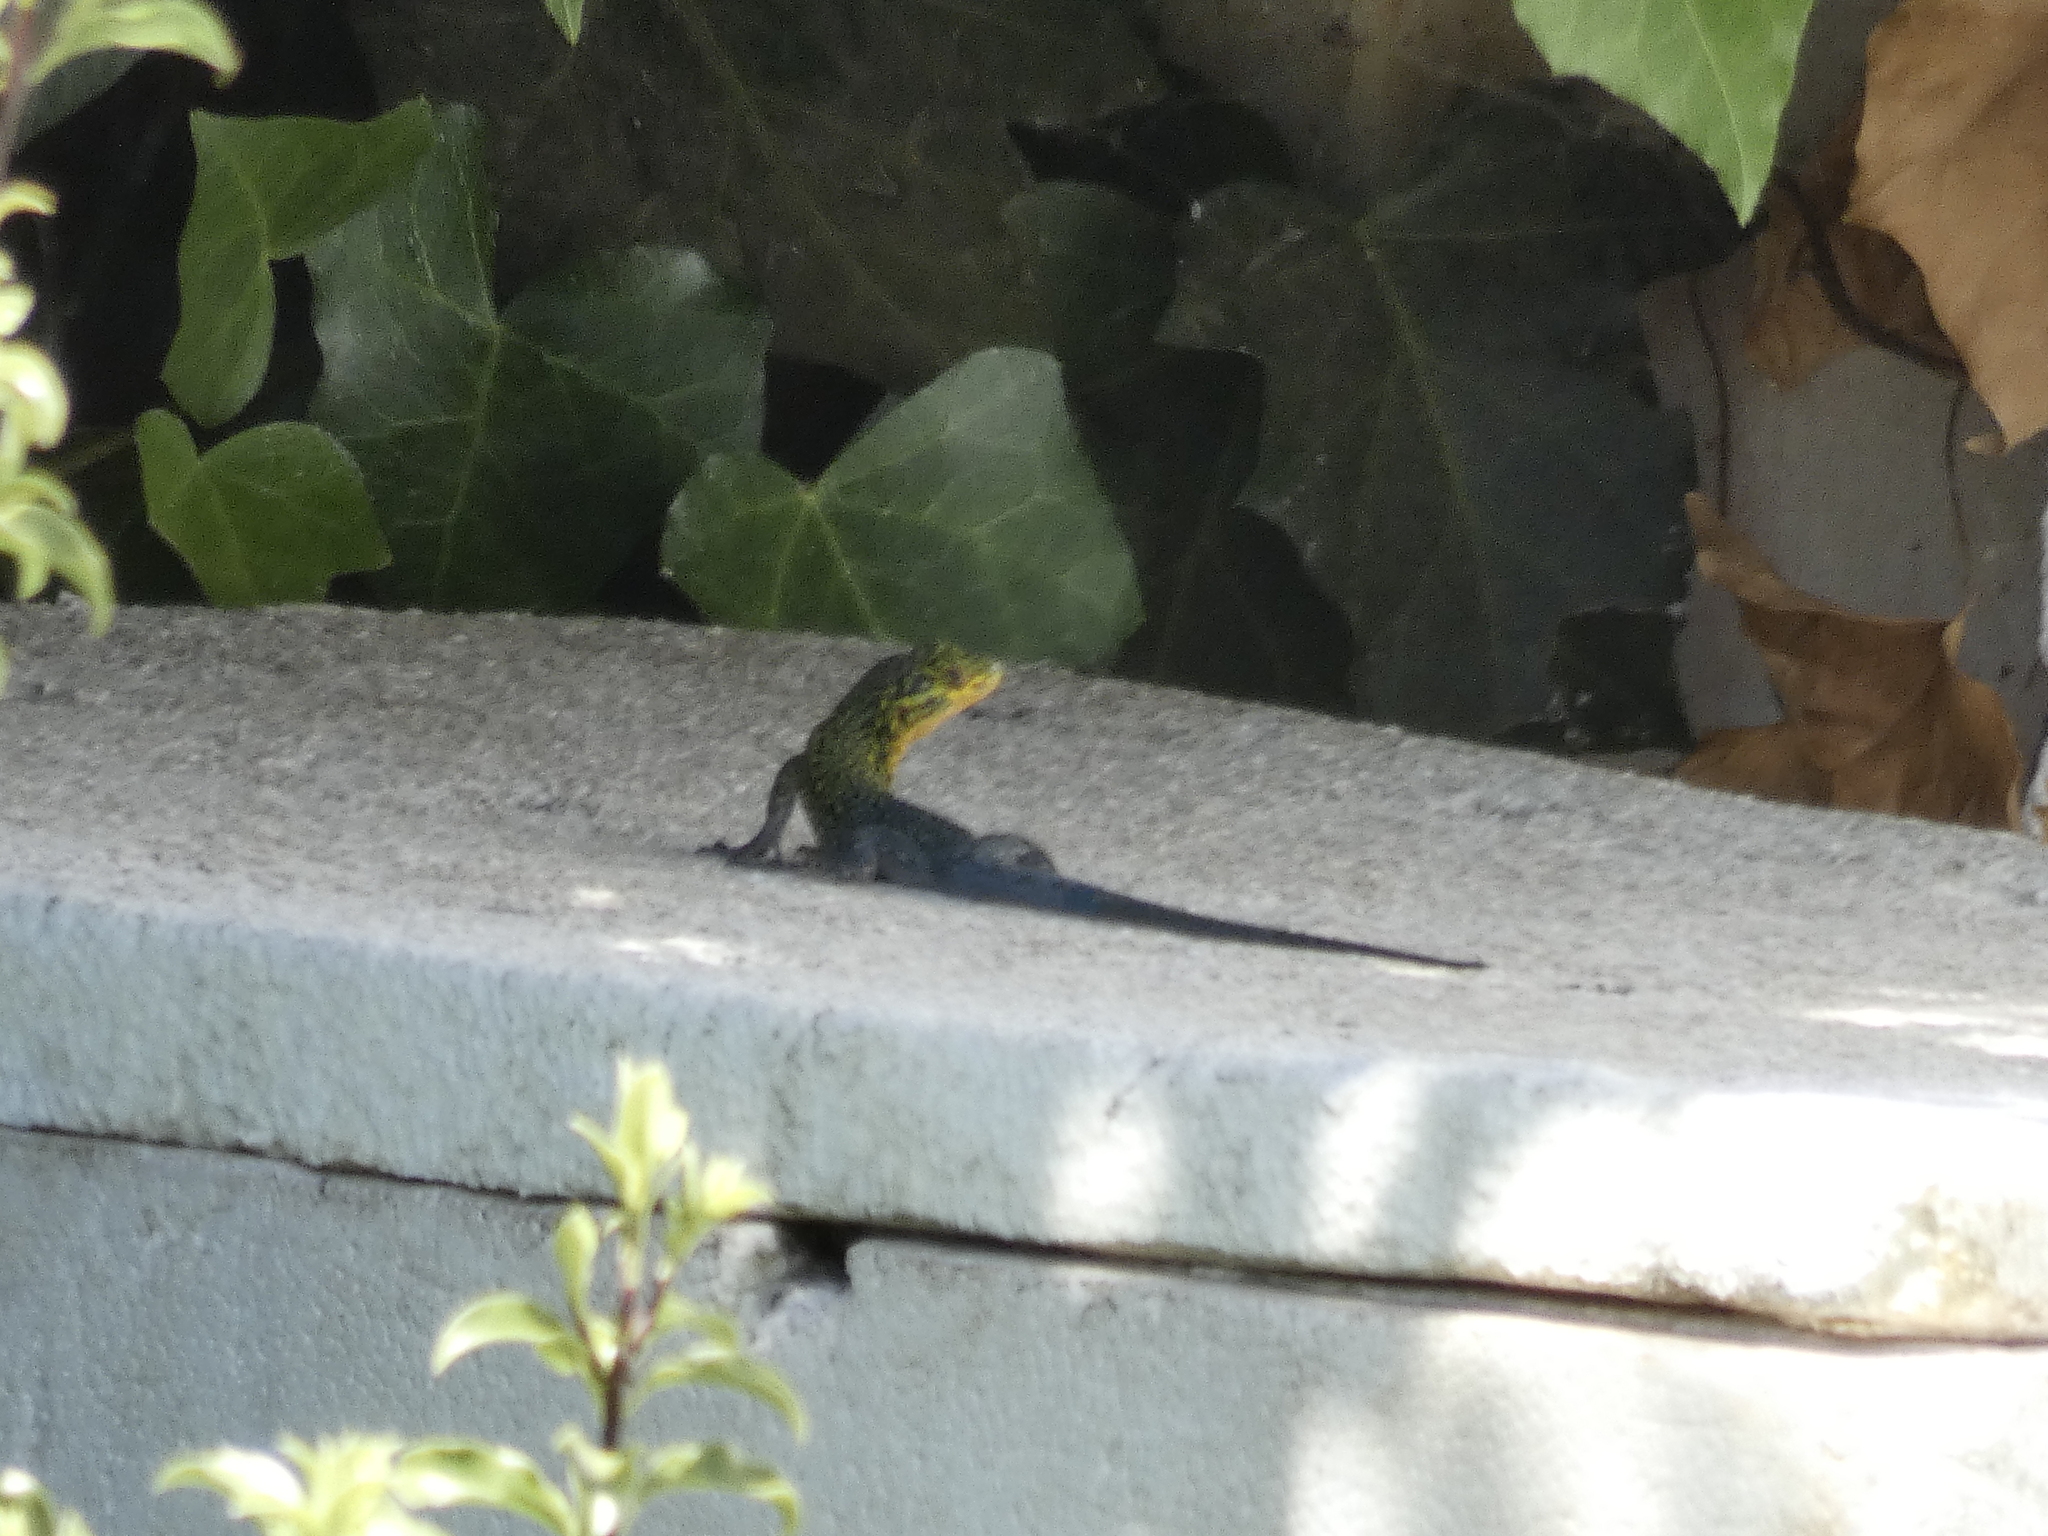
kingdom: Animalia
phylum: Chordata
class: Squamata
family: Liolaemidae
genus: Liolaemus
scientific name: Liolaemus tenuis
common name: Thin tree iguana
